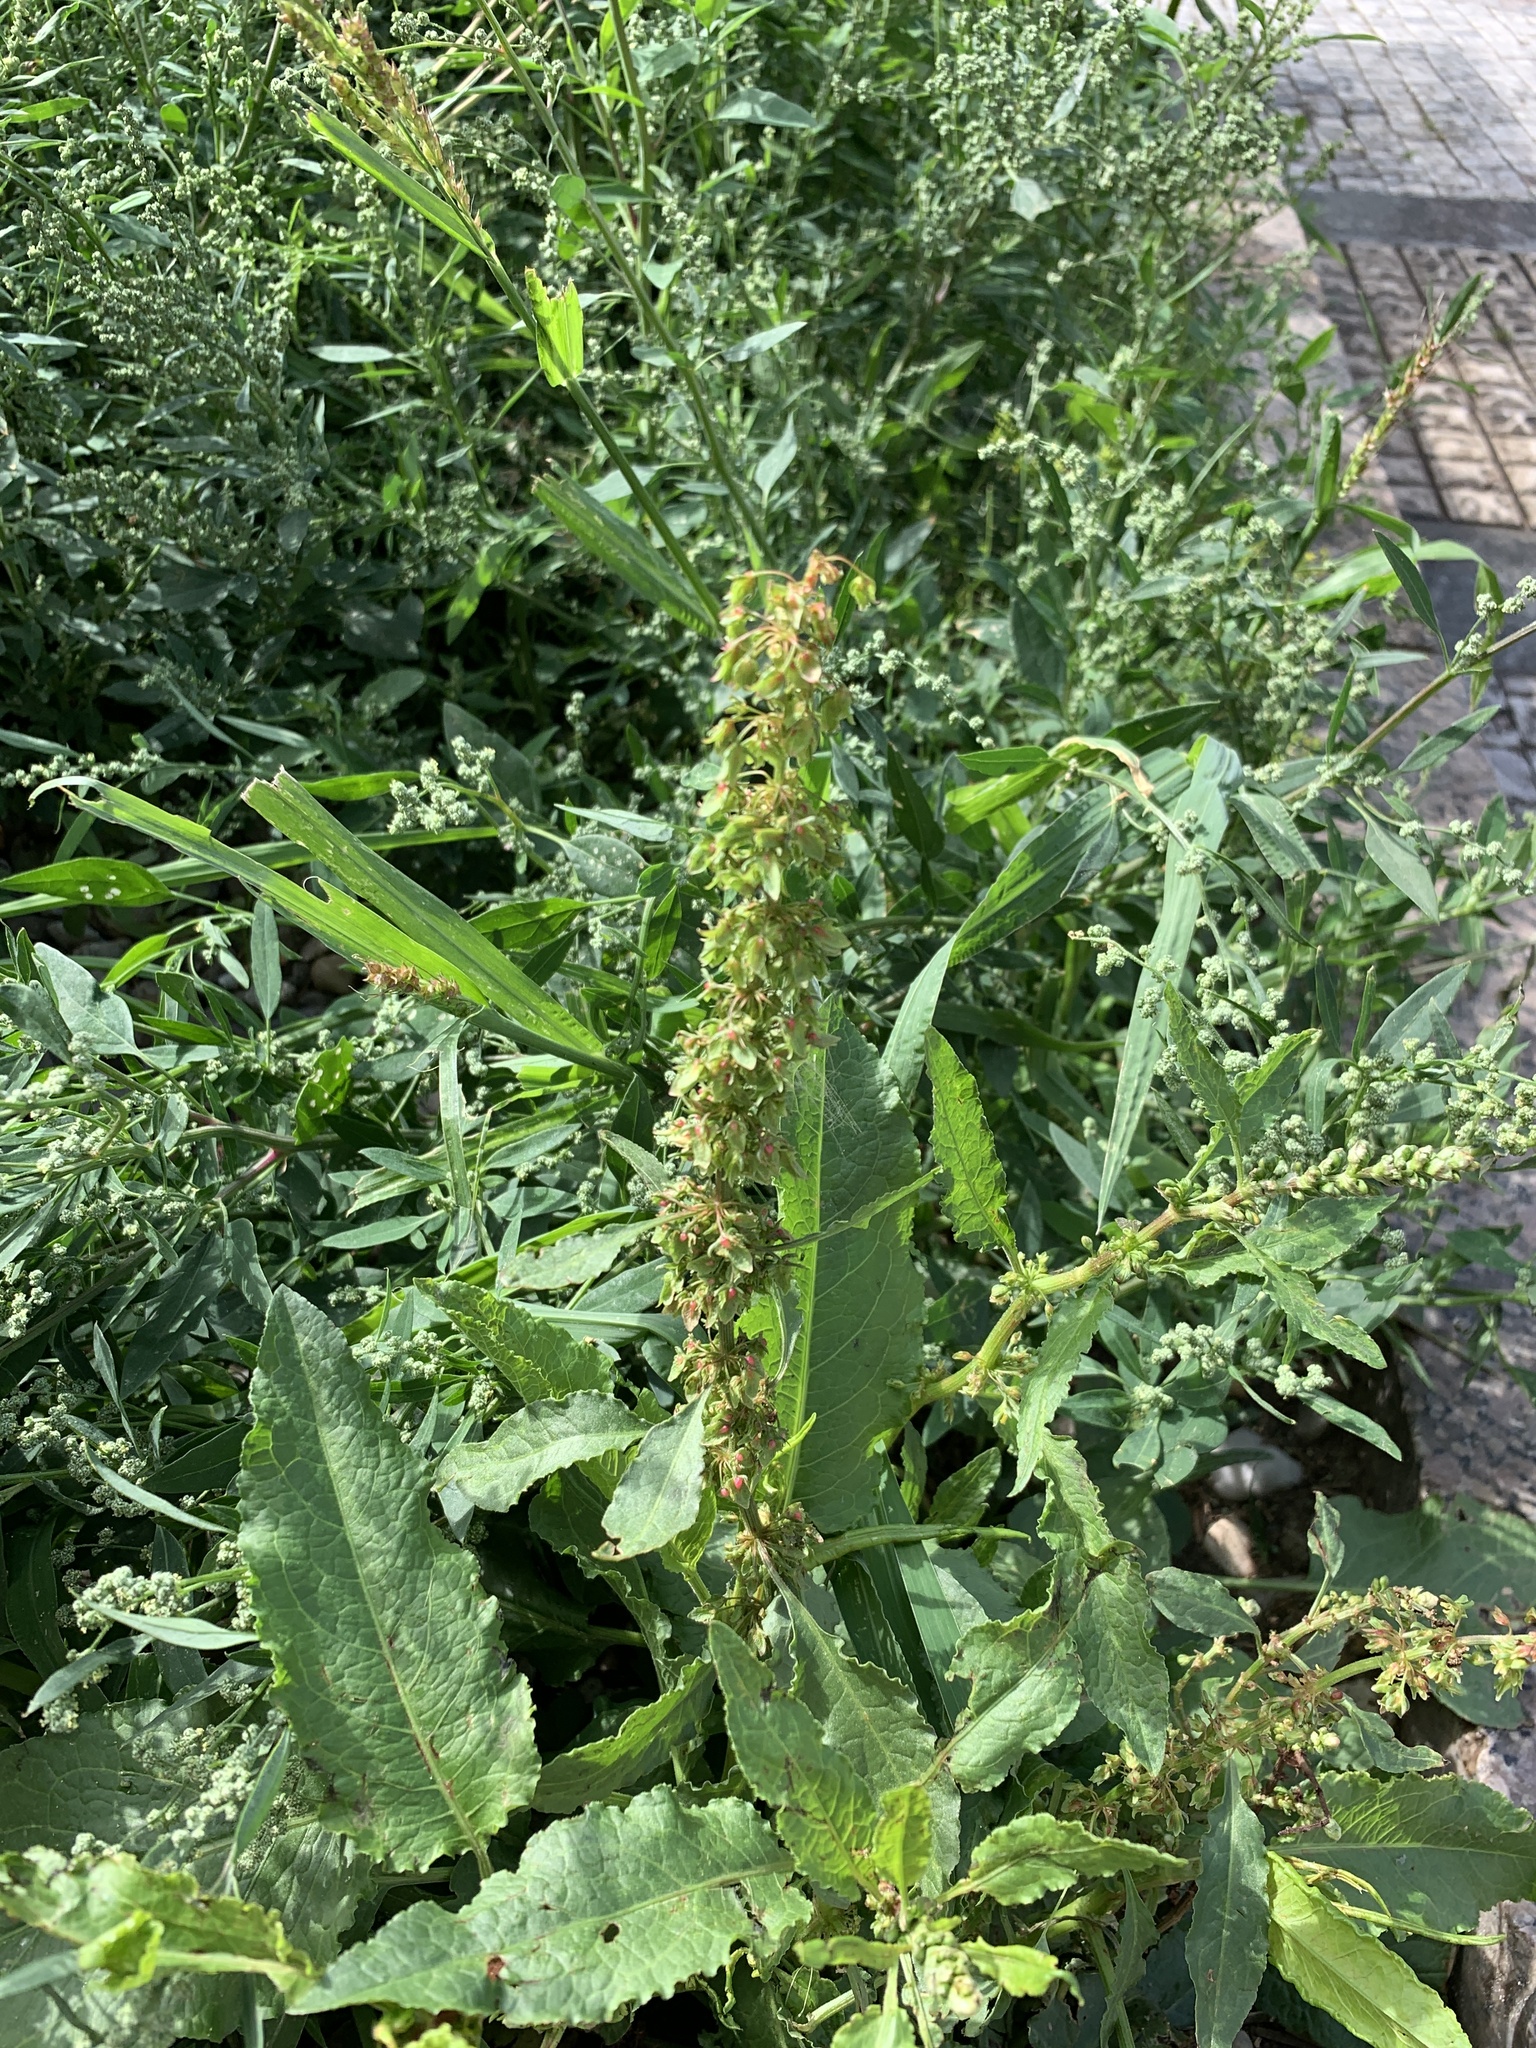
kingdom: Plantae
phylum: Tracheophyta
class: Magnoliopsida
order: Caryophyllales
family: Polygonaceae
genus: Rumex
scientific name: Rumex obtusifolius
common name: Bitter dock
